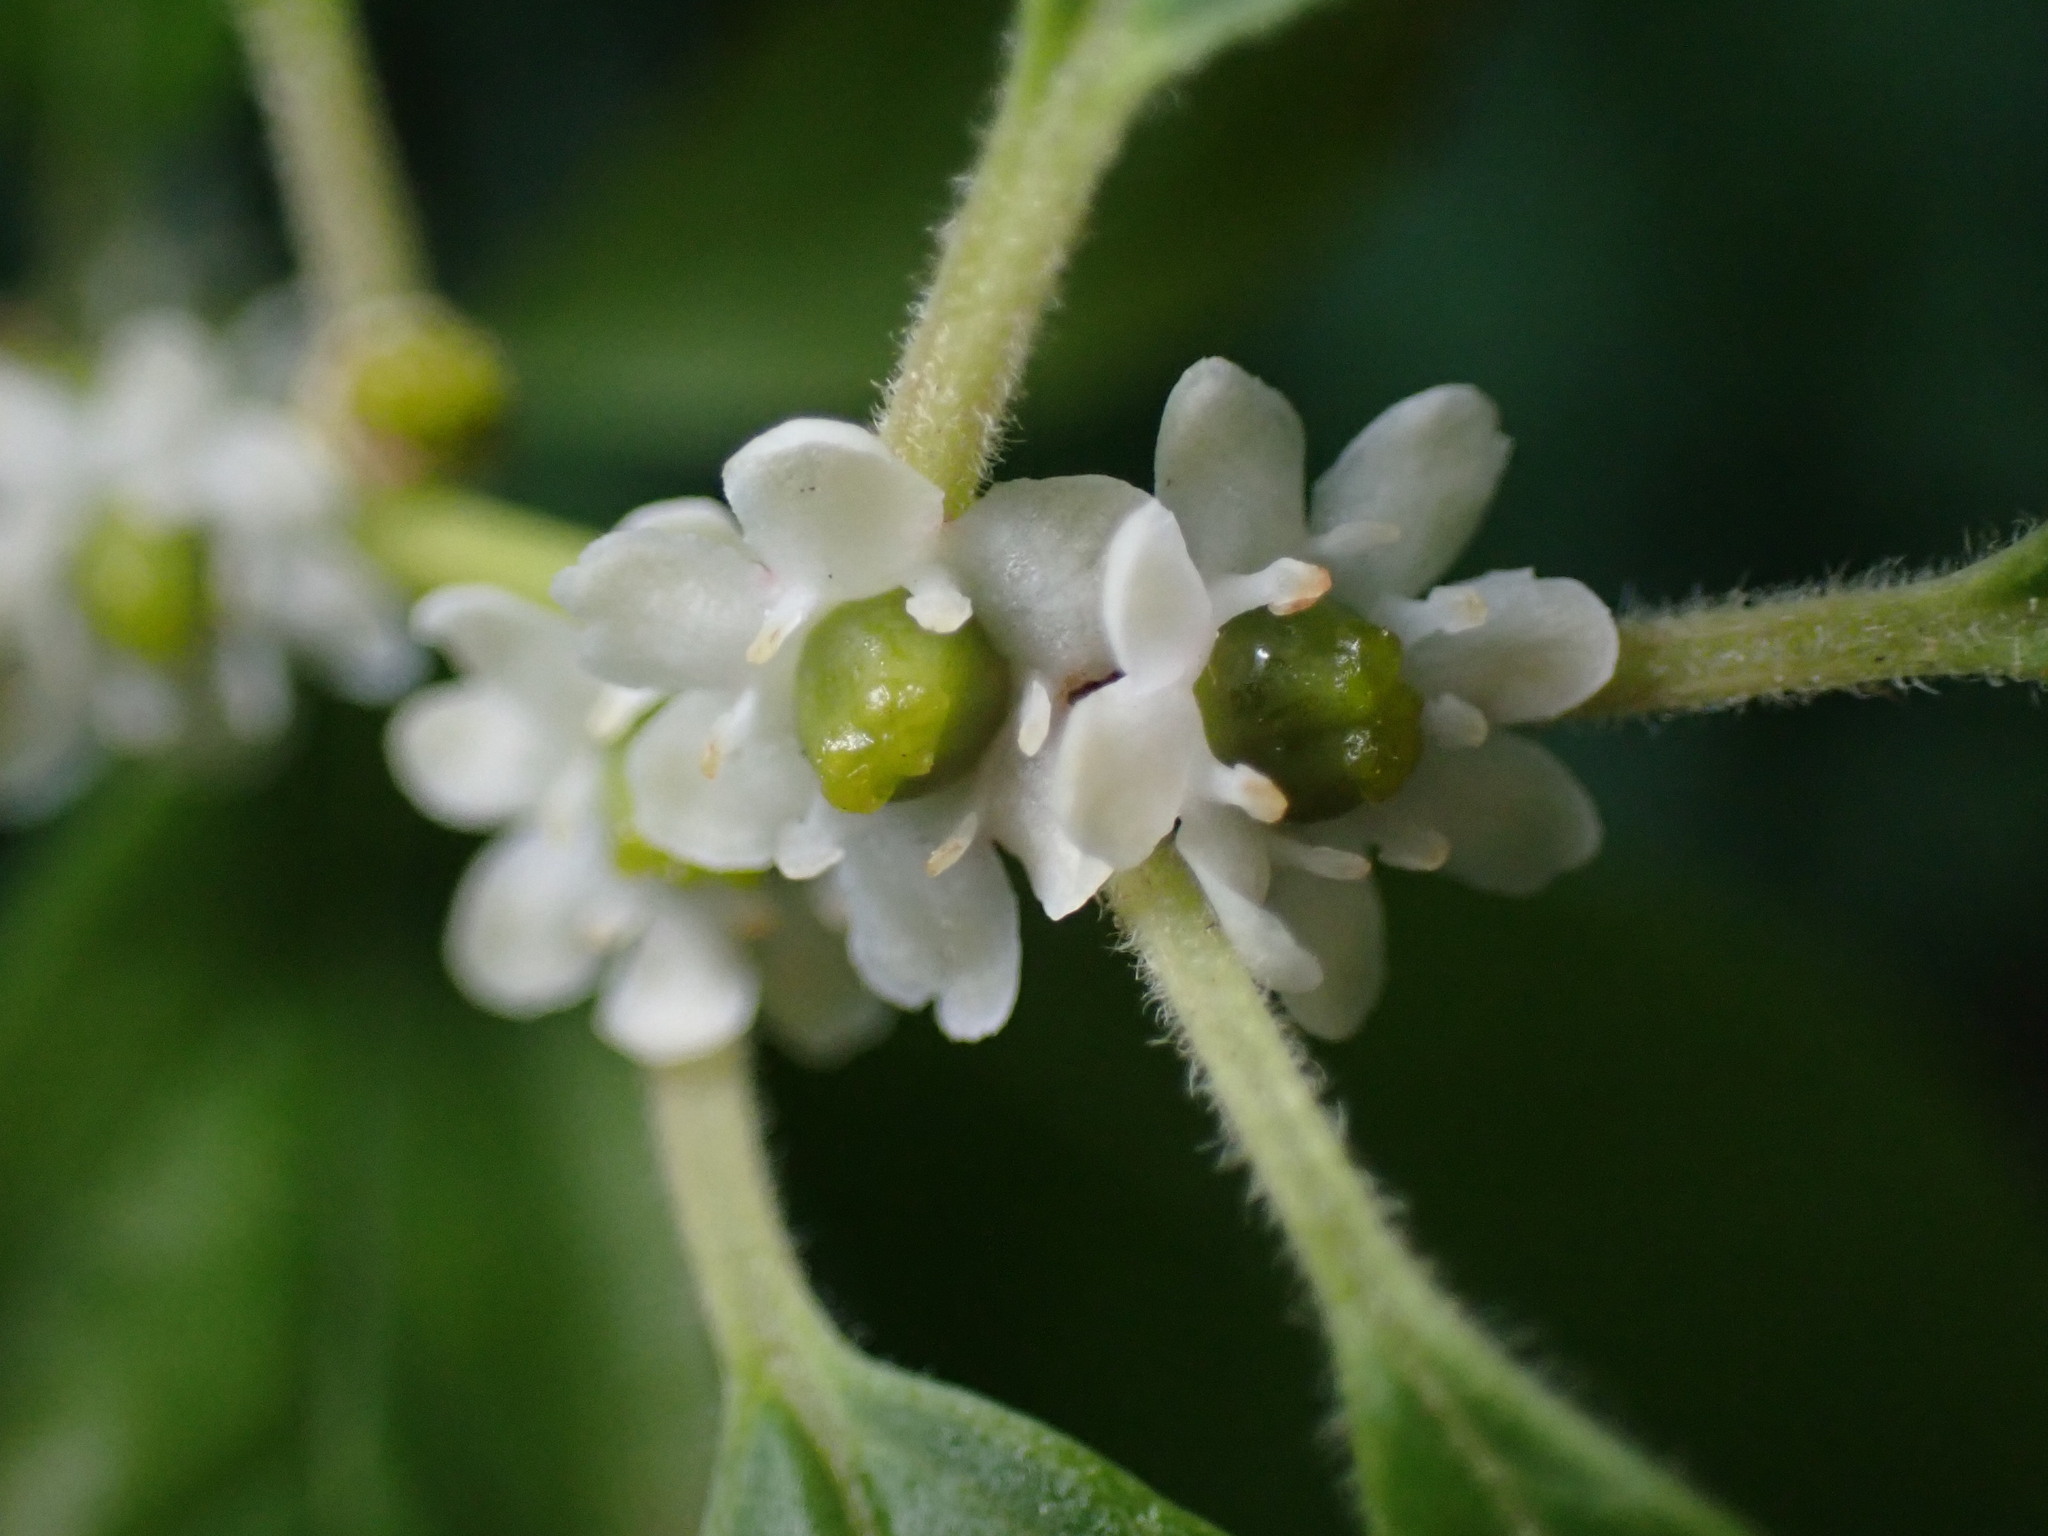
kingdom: Plantae
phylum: Tracheophyta
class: Magnoliopsida
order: Aquifoliales
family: Aquifoliaceae
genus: Ilex
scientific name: Ilex verticillata
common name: Virginia winterberry
